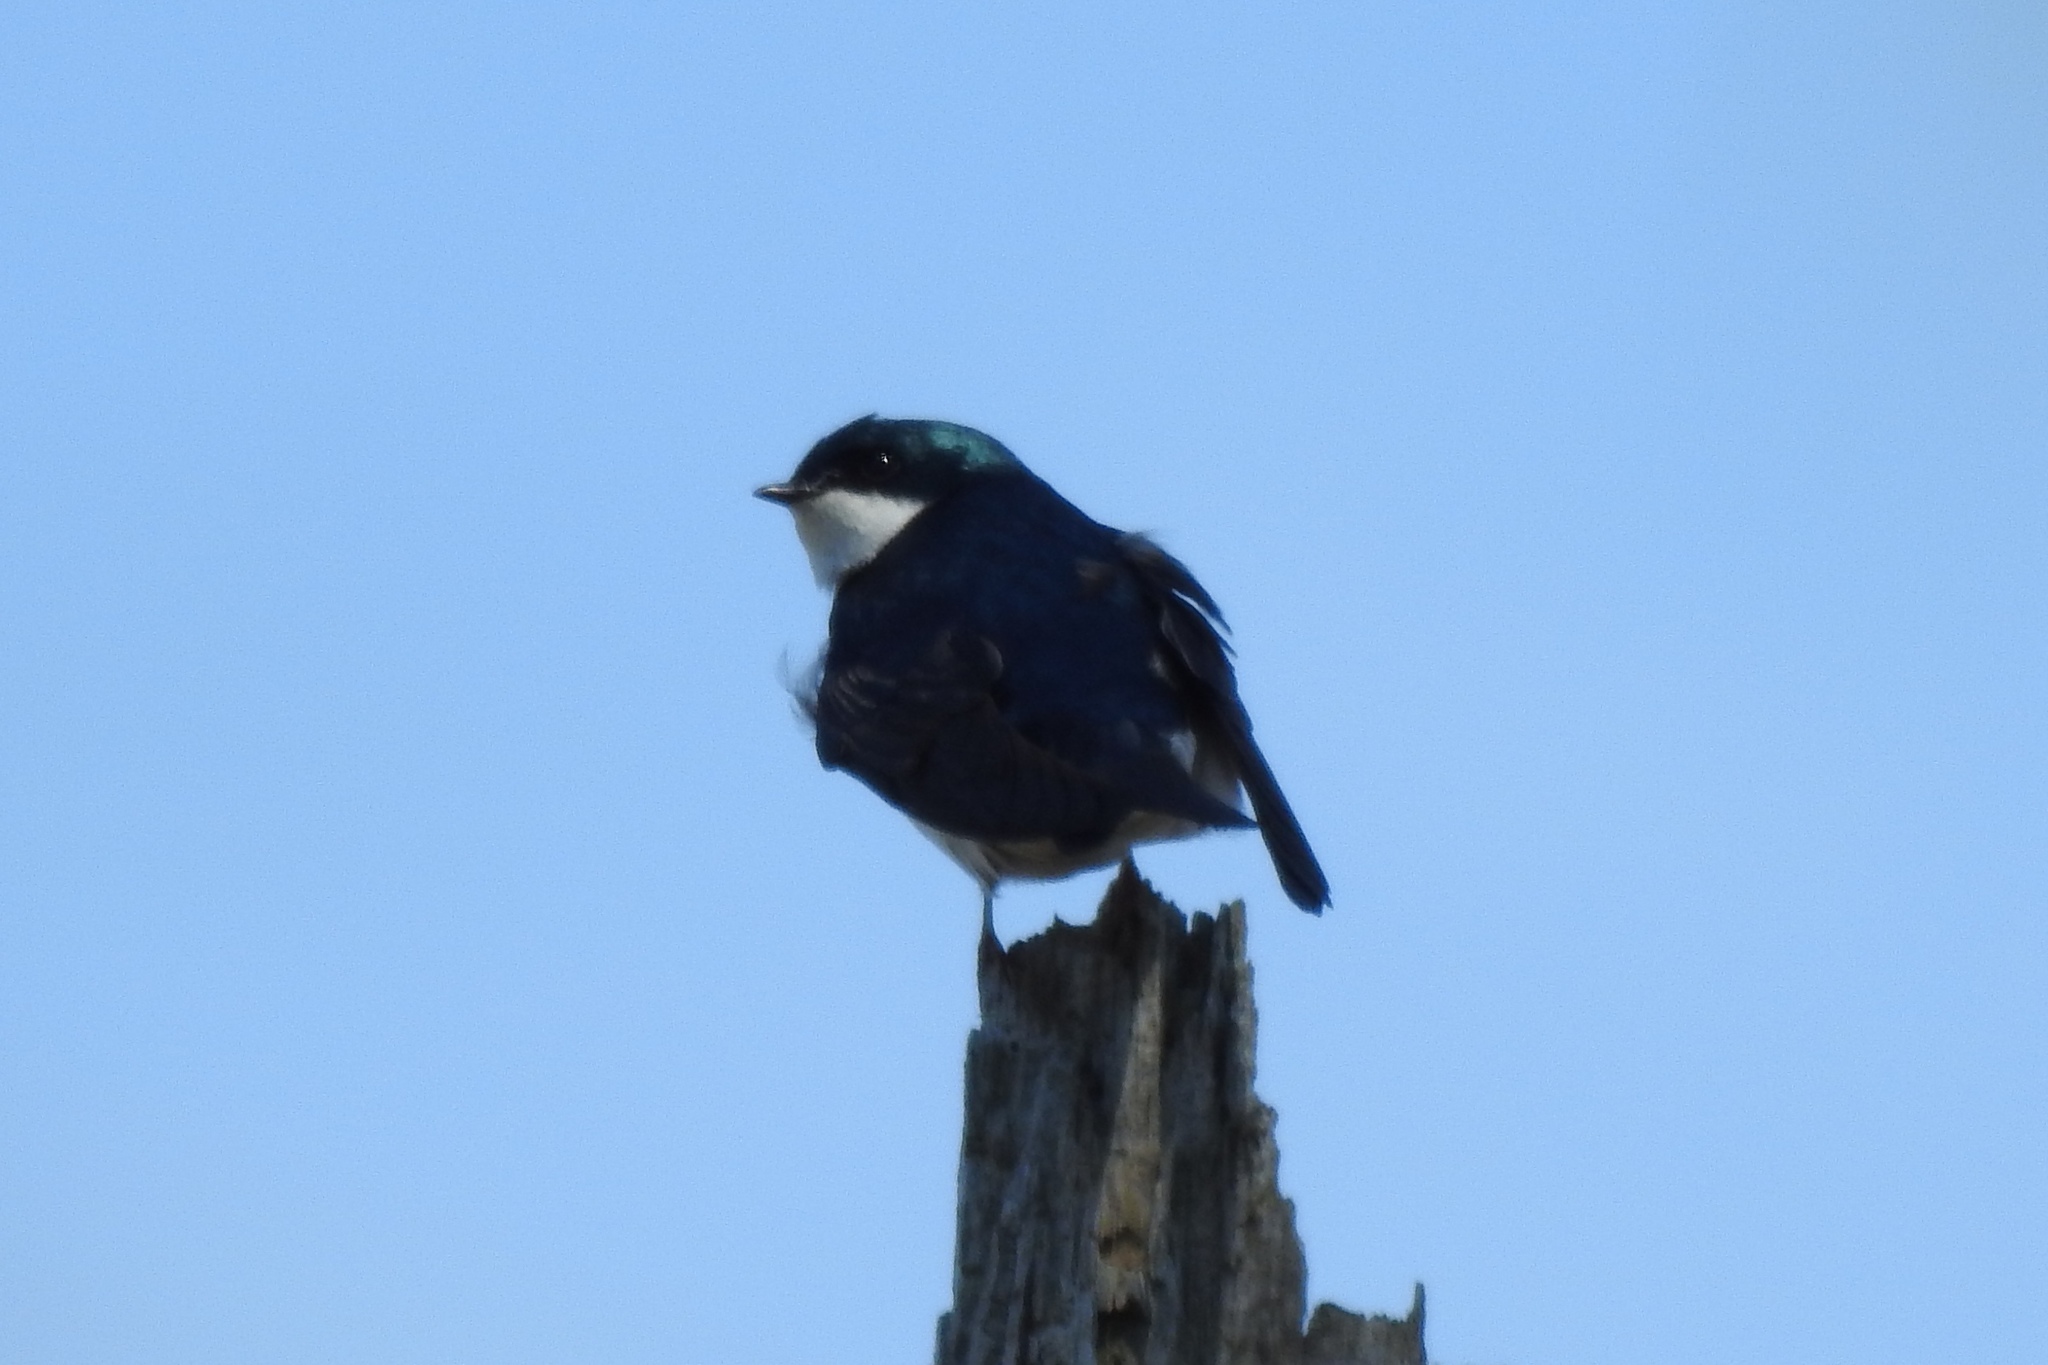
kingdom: Animalia
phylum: Chordata
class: Aves
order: Passeriformes
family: Hirundinidae
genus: Tachycineta
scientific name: Tachycineta bicolor
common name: Tree swallow
